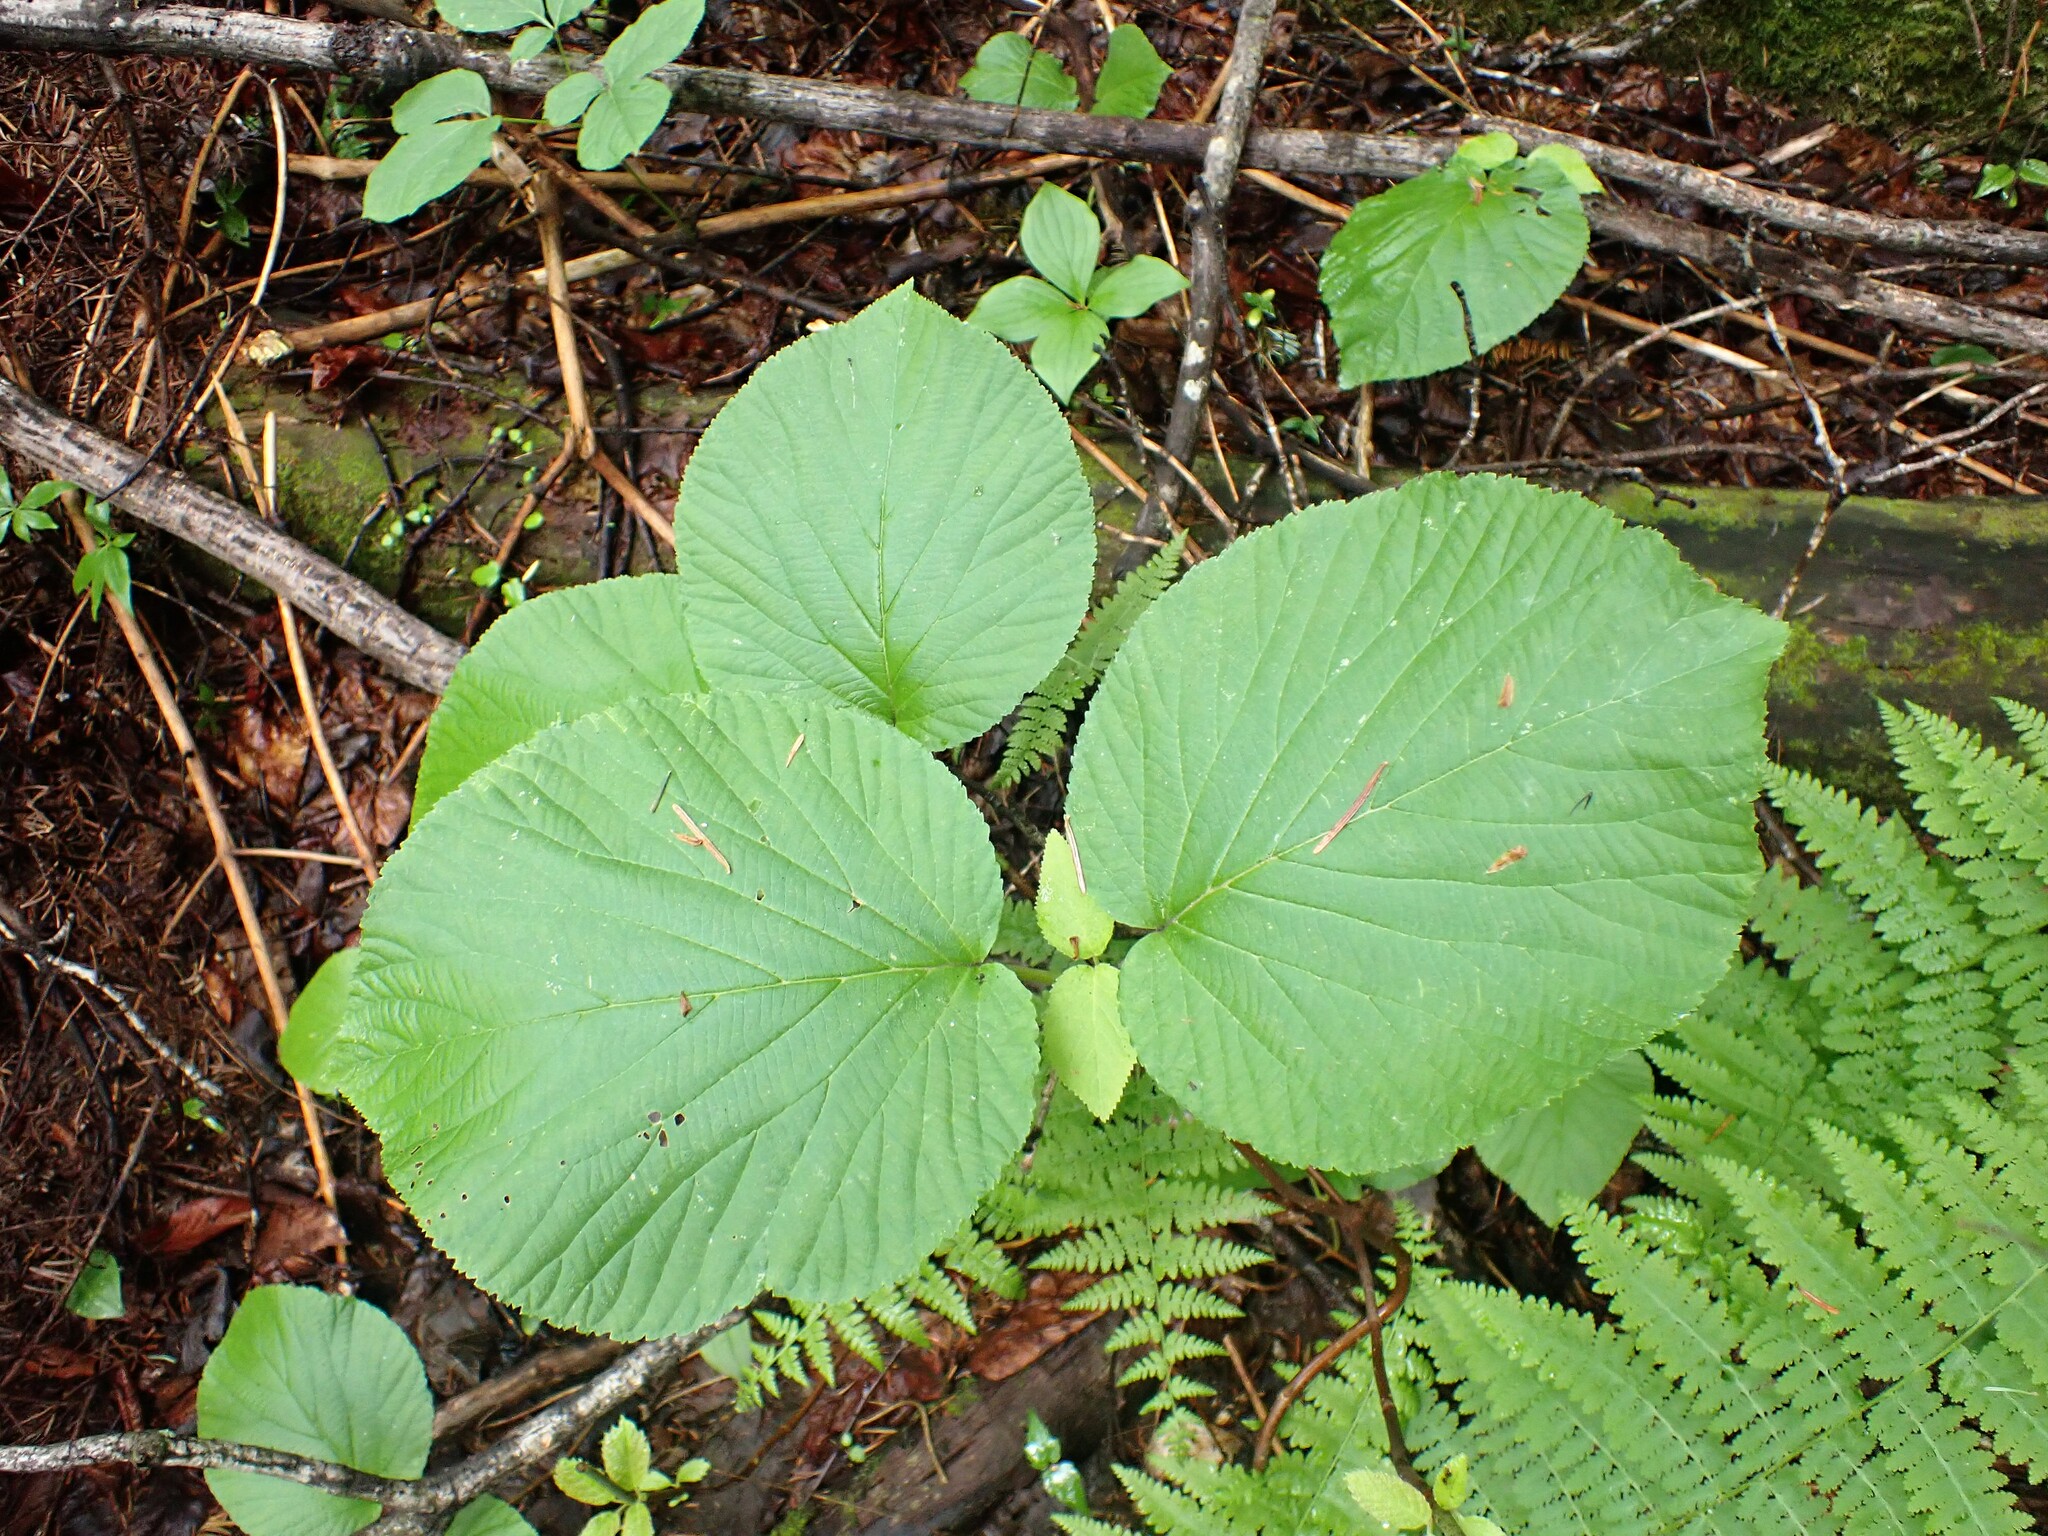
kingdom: Plantae
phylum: Tracheophyta
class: Magnoliopsida
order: Dipsacales
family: Viburnaceae
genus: Viburnum
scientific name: Viburnum lantanoides
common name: Hobblebush
